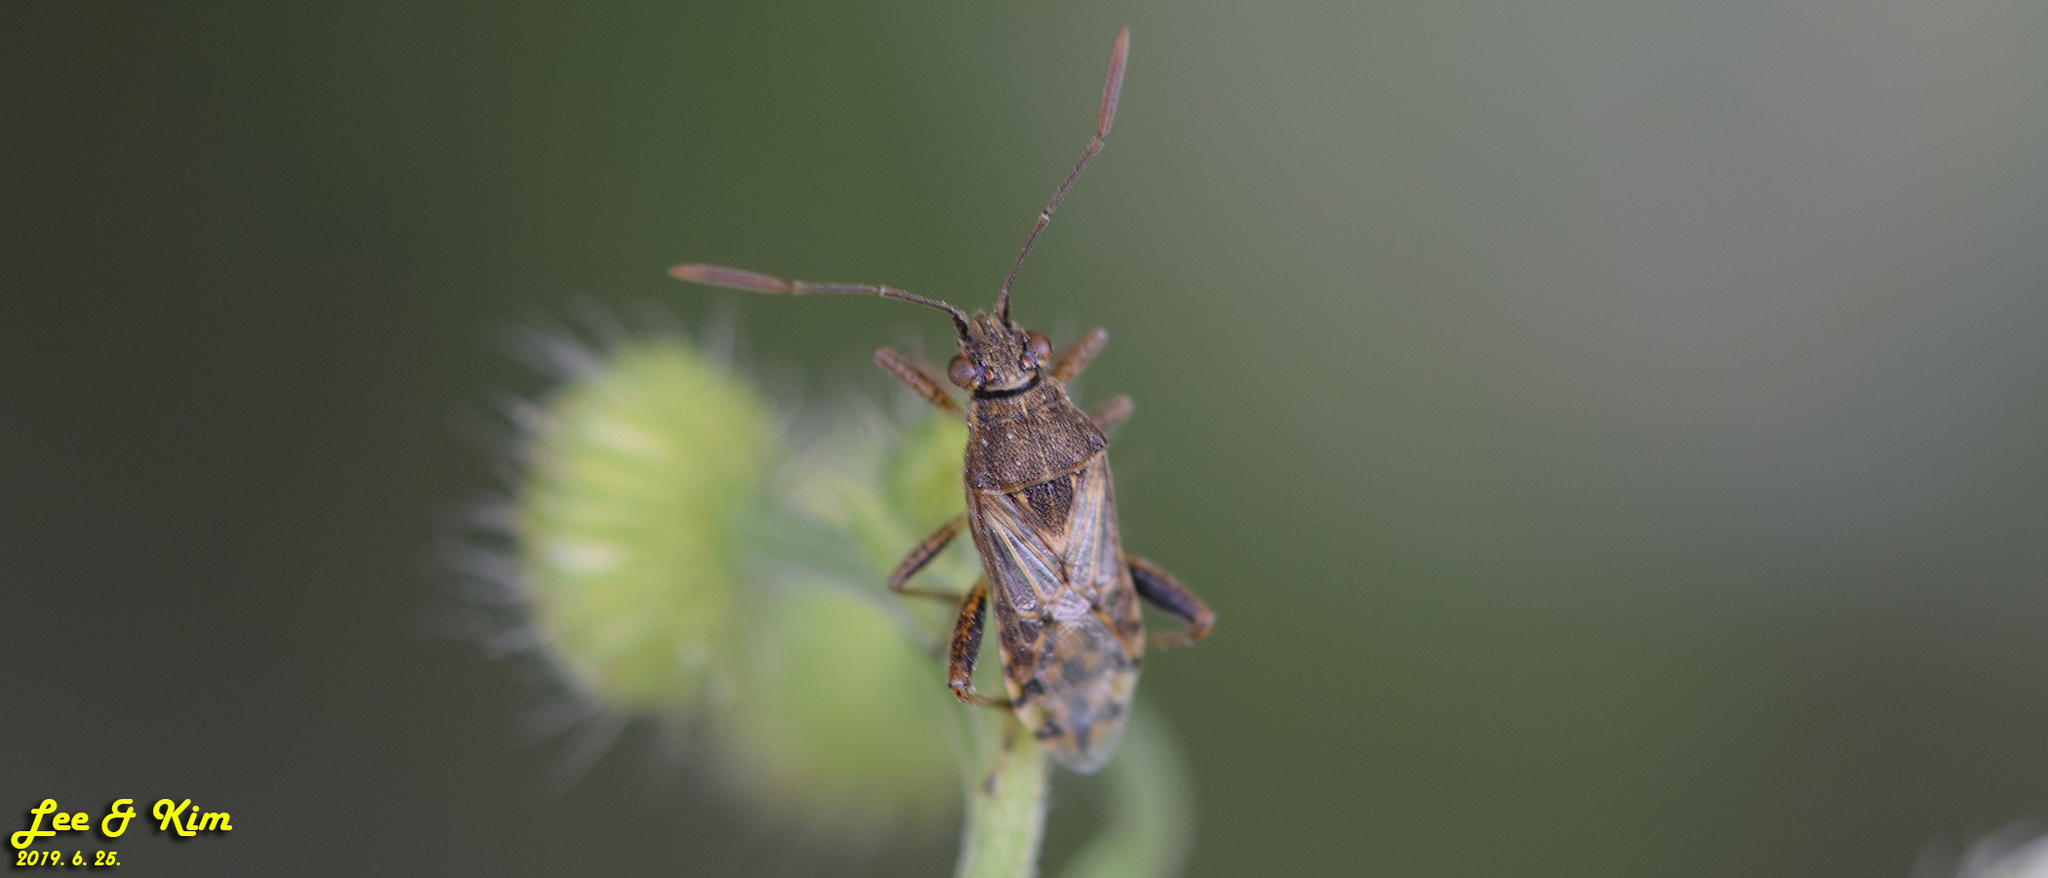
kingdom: Animalia
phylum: Arthropoda
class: Insecta
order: Hemiptera
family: Rhopalidae
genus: Stictopleurus
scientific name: Stictopleurus minutus
